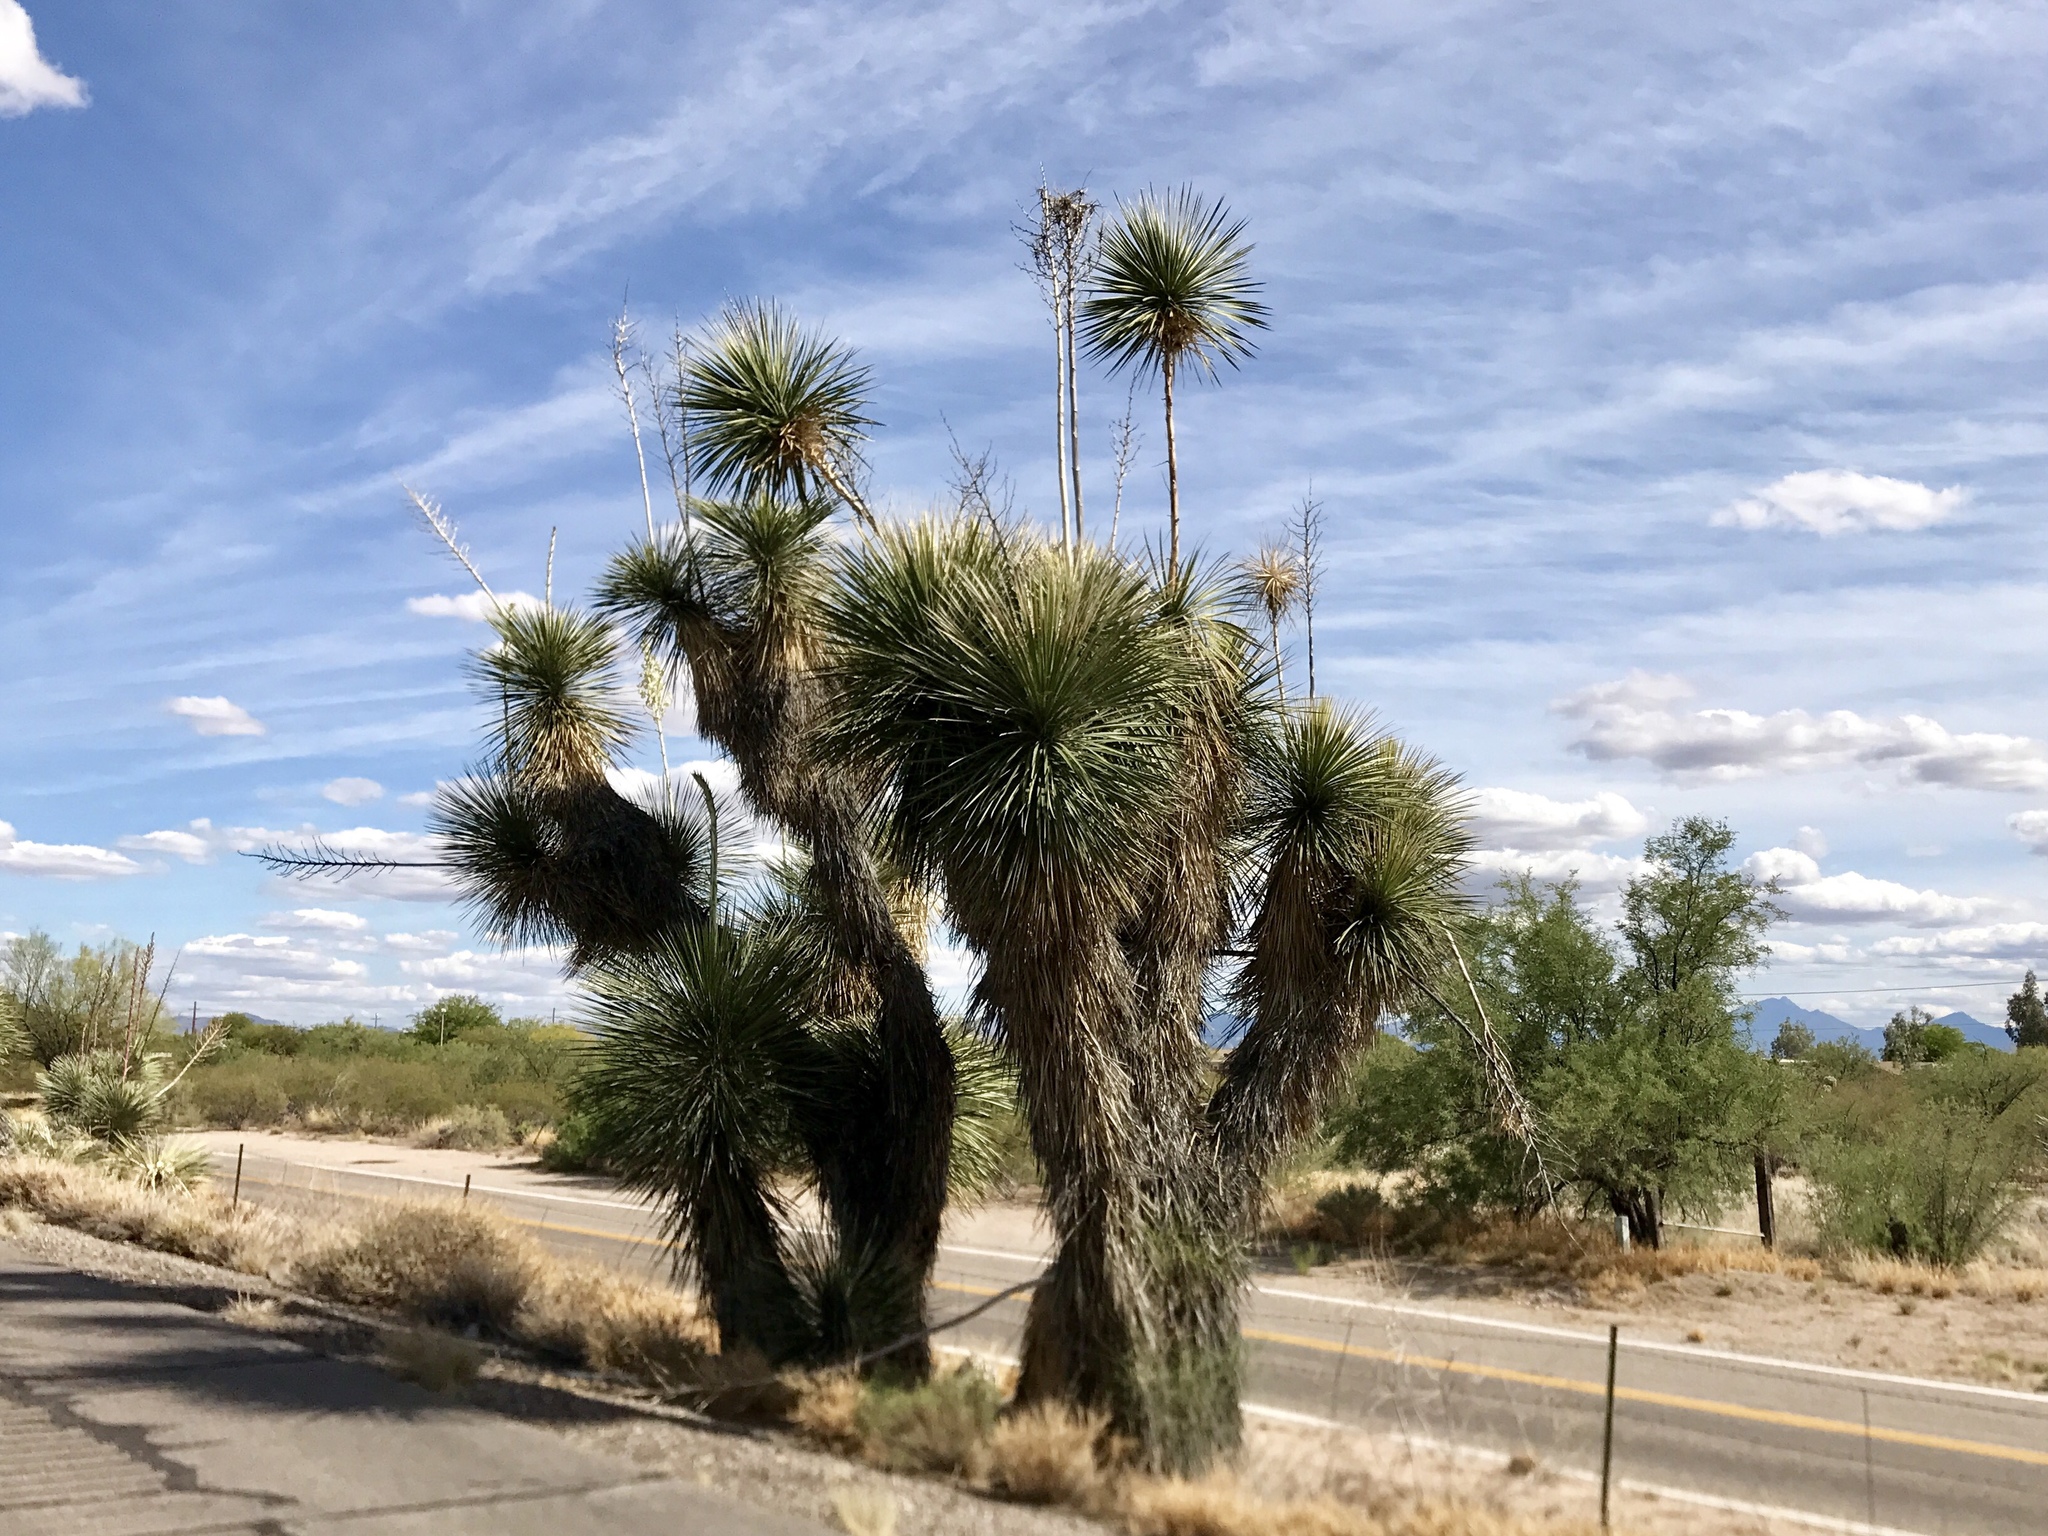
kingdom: Plantae
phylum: Tracheophyta
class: Liliopsida
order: Asparagales
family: Asparagaceae
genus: Yucca
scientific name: Yucca elata
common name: Palmella
